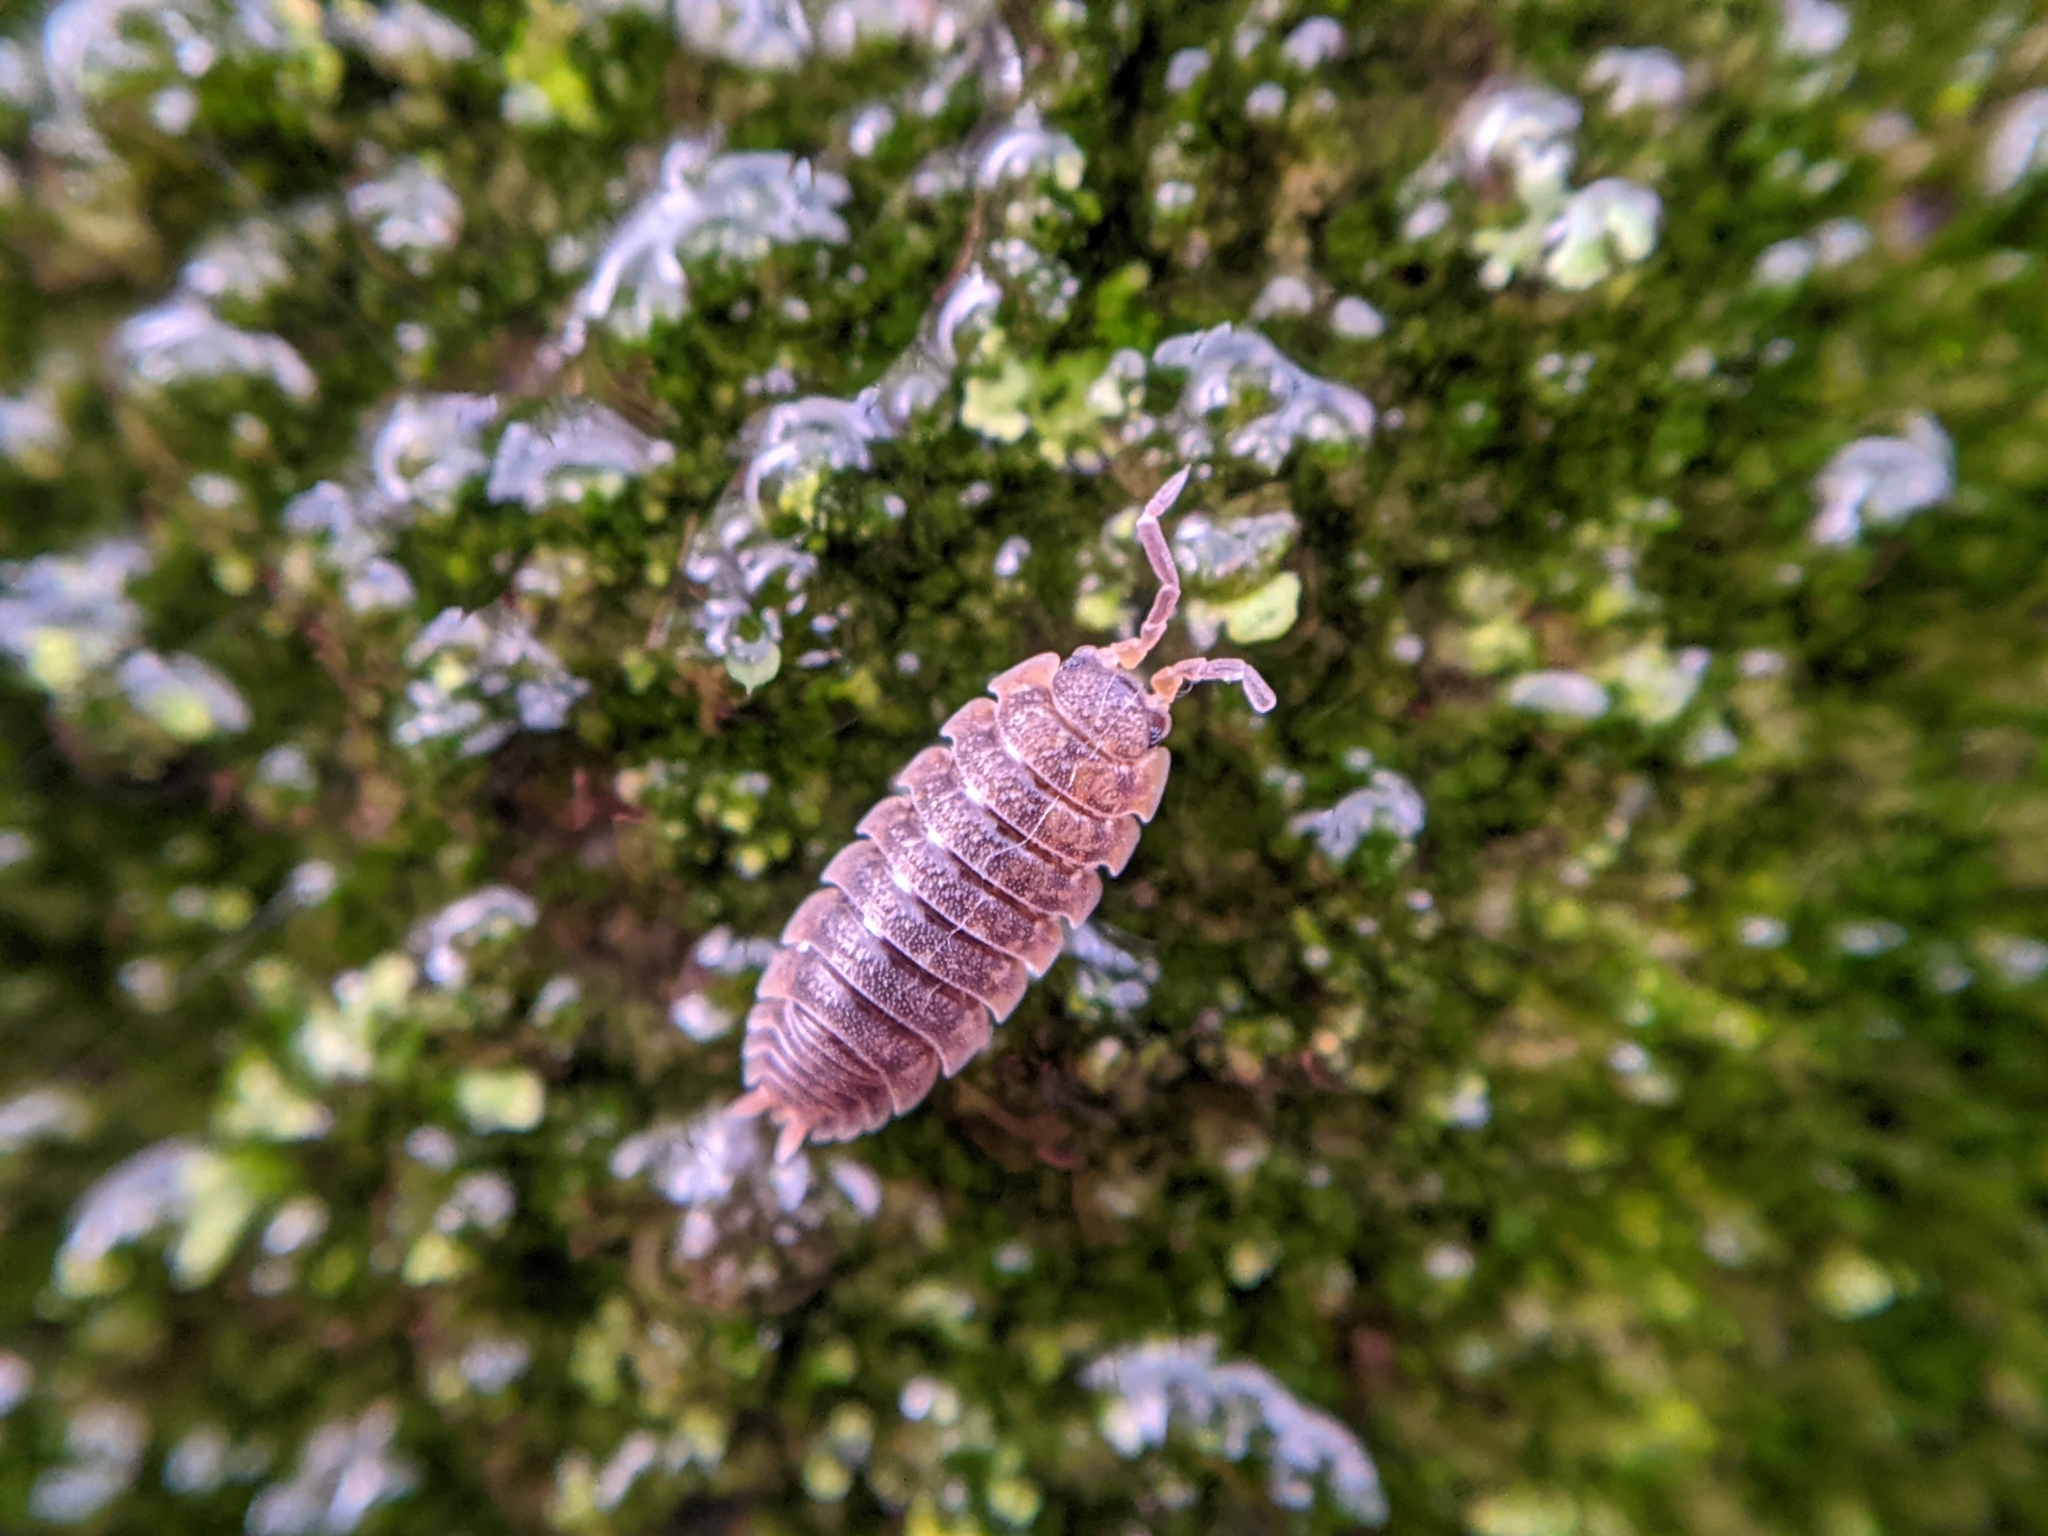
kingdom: Animalia
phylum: Arthropoda
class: Malacostraca
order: Isopoda
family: Porcellionidae
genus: Porcellio
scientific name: Porcellio scaber
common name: Common rough woodlouse
